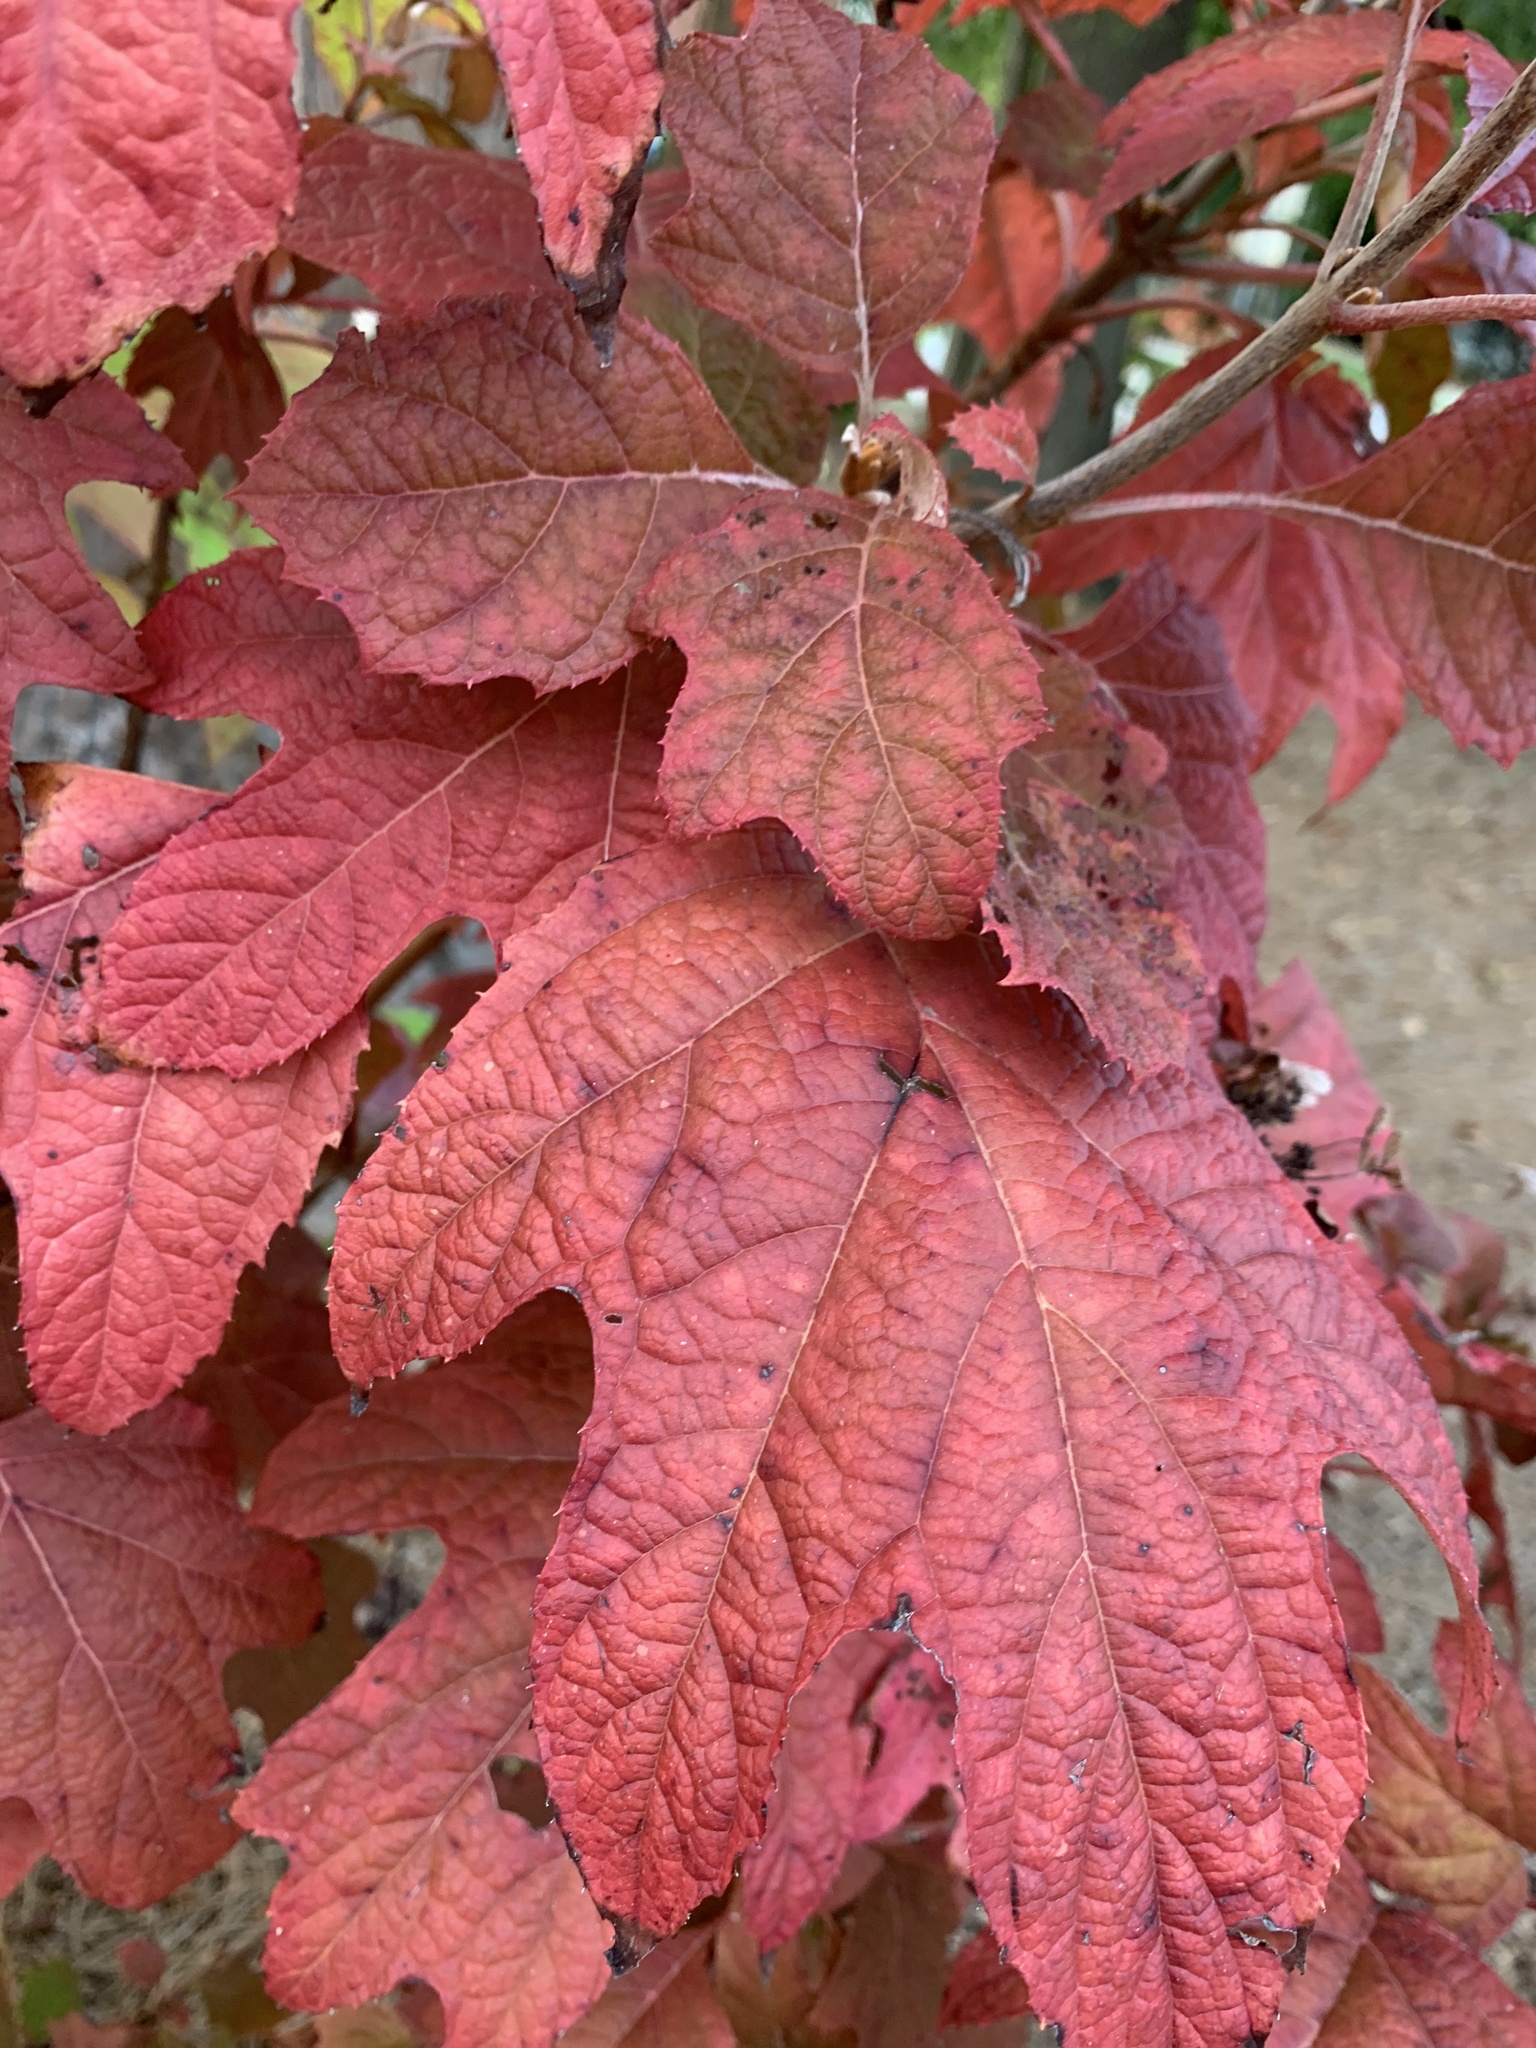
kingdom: Plantae
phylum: Tracheophyta
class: Magnoliopsida
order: Cornales
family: Hydrangeaceae
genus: Hydrangea
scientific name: Hydrangea quercifolia
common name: Oak-leaf hydrangea
